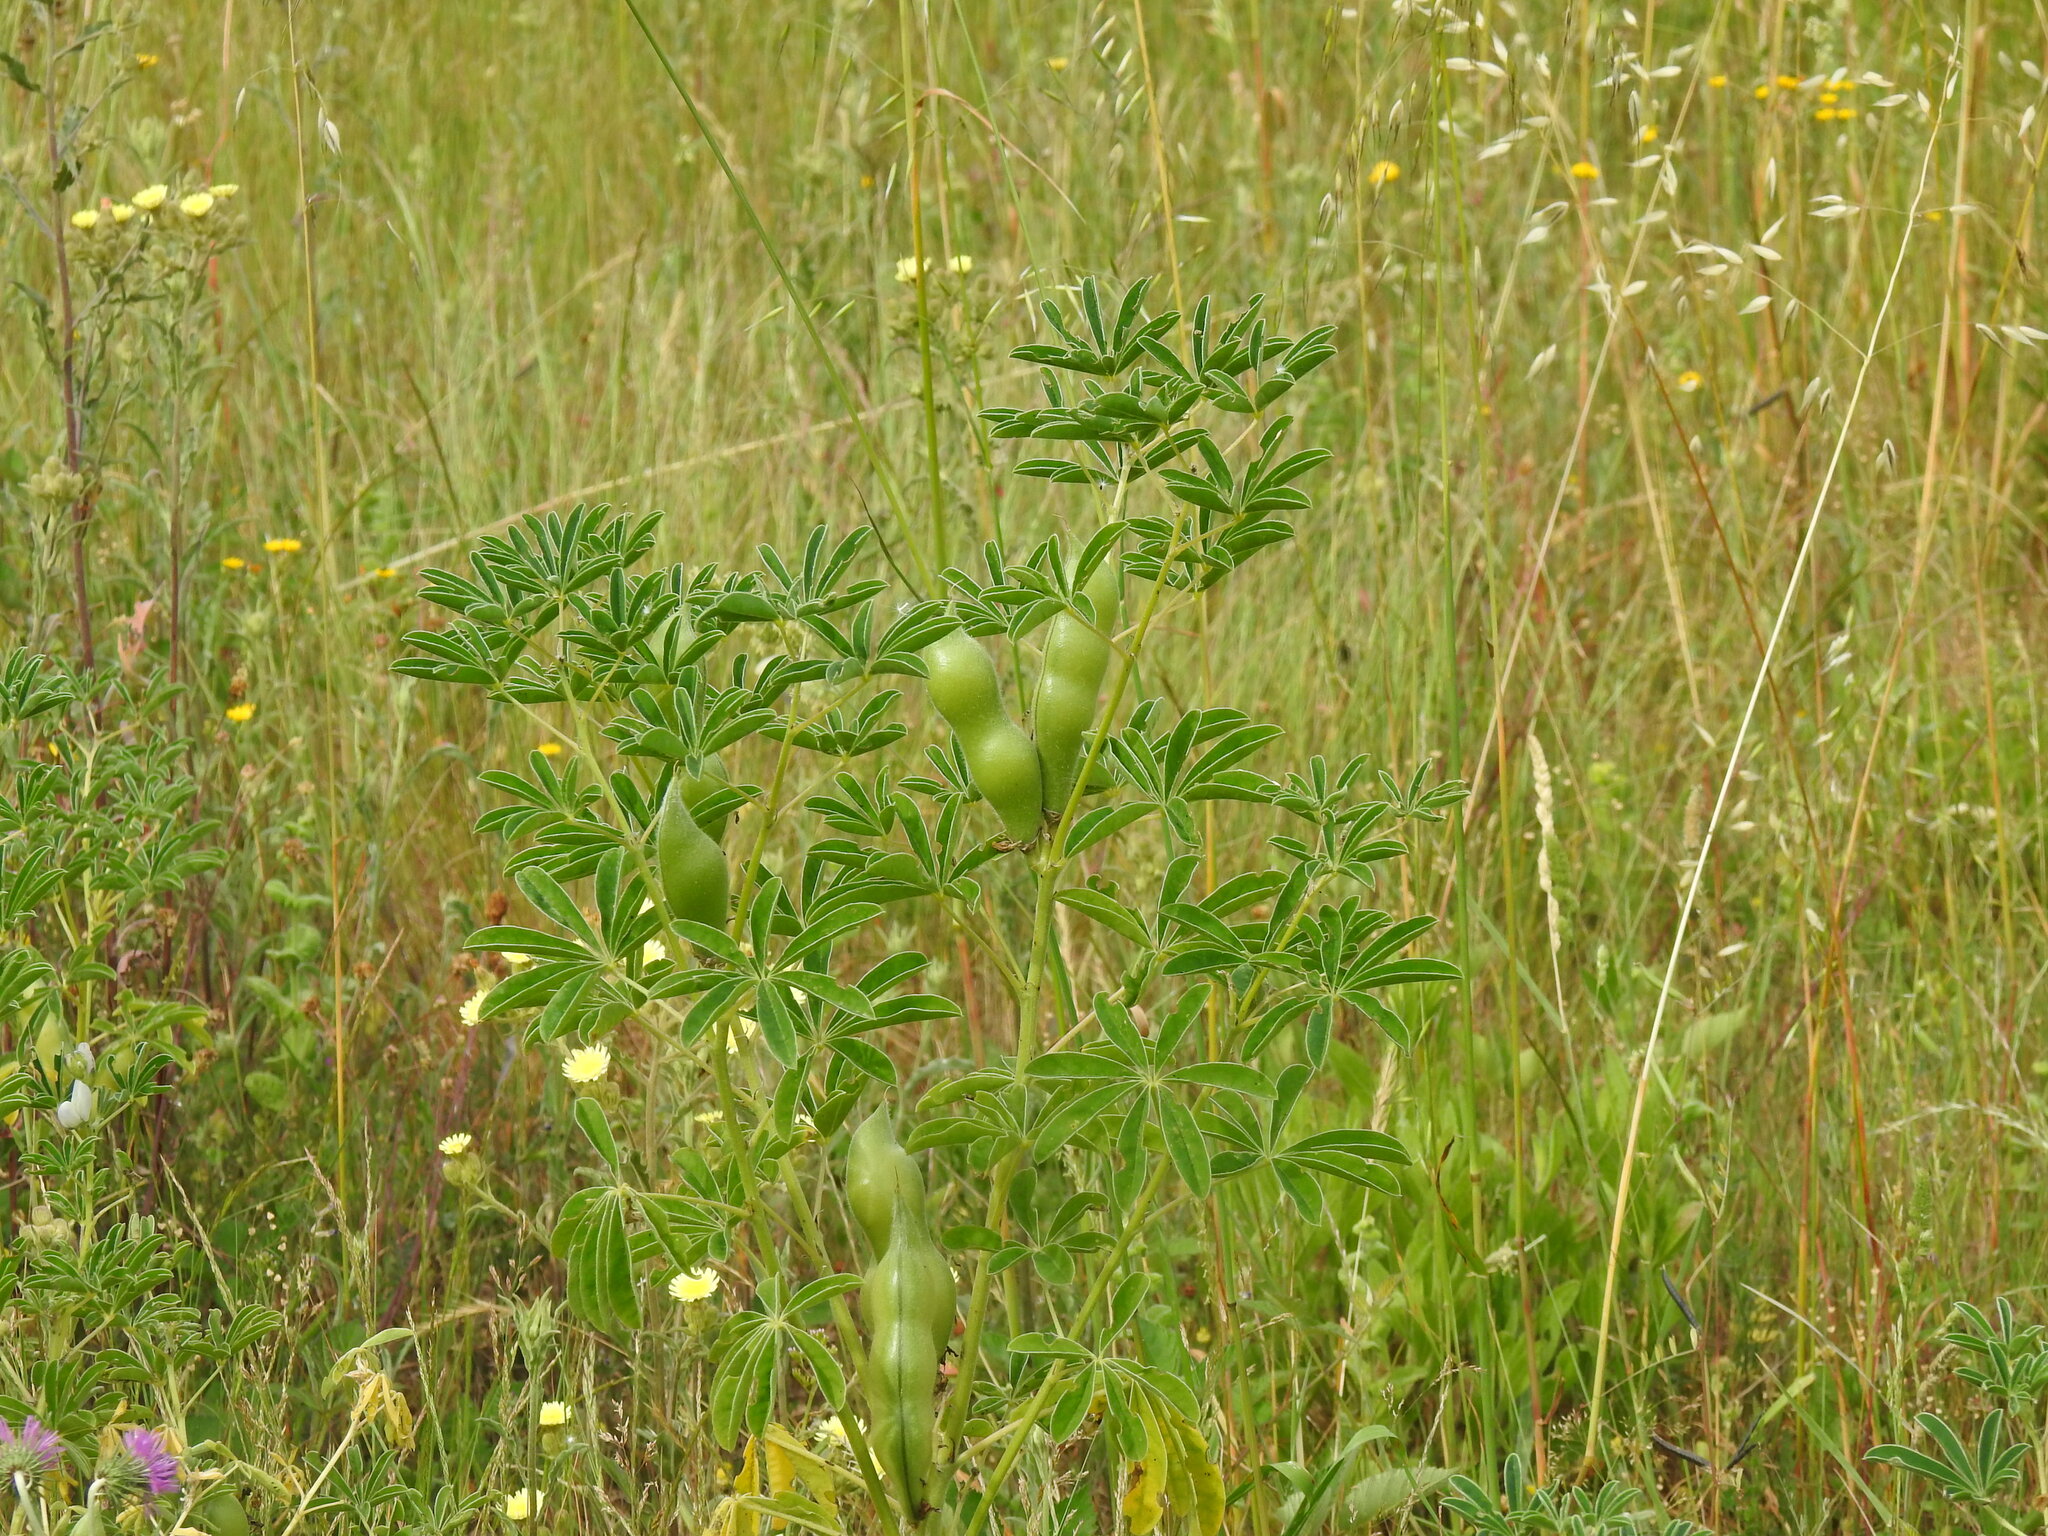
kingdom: Plantae
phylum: Tracheophyta
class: Magnoliopsida
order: Fabales
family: Fabaceae
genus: Lupinus
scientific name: Lupinus albus
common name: White lupin
